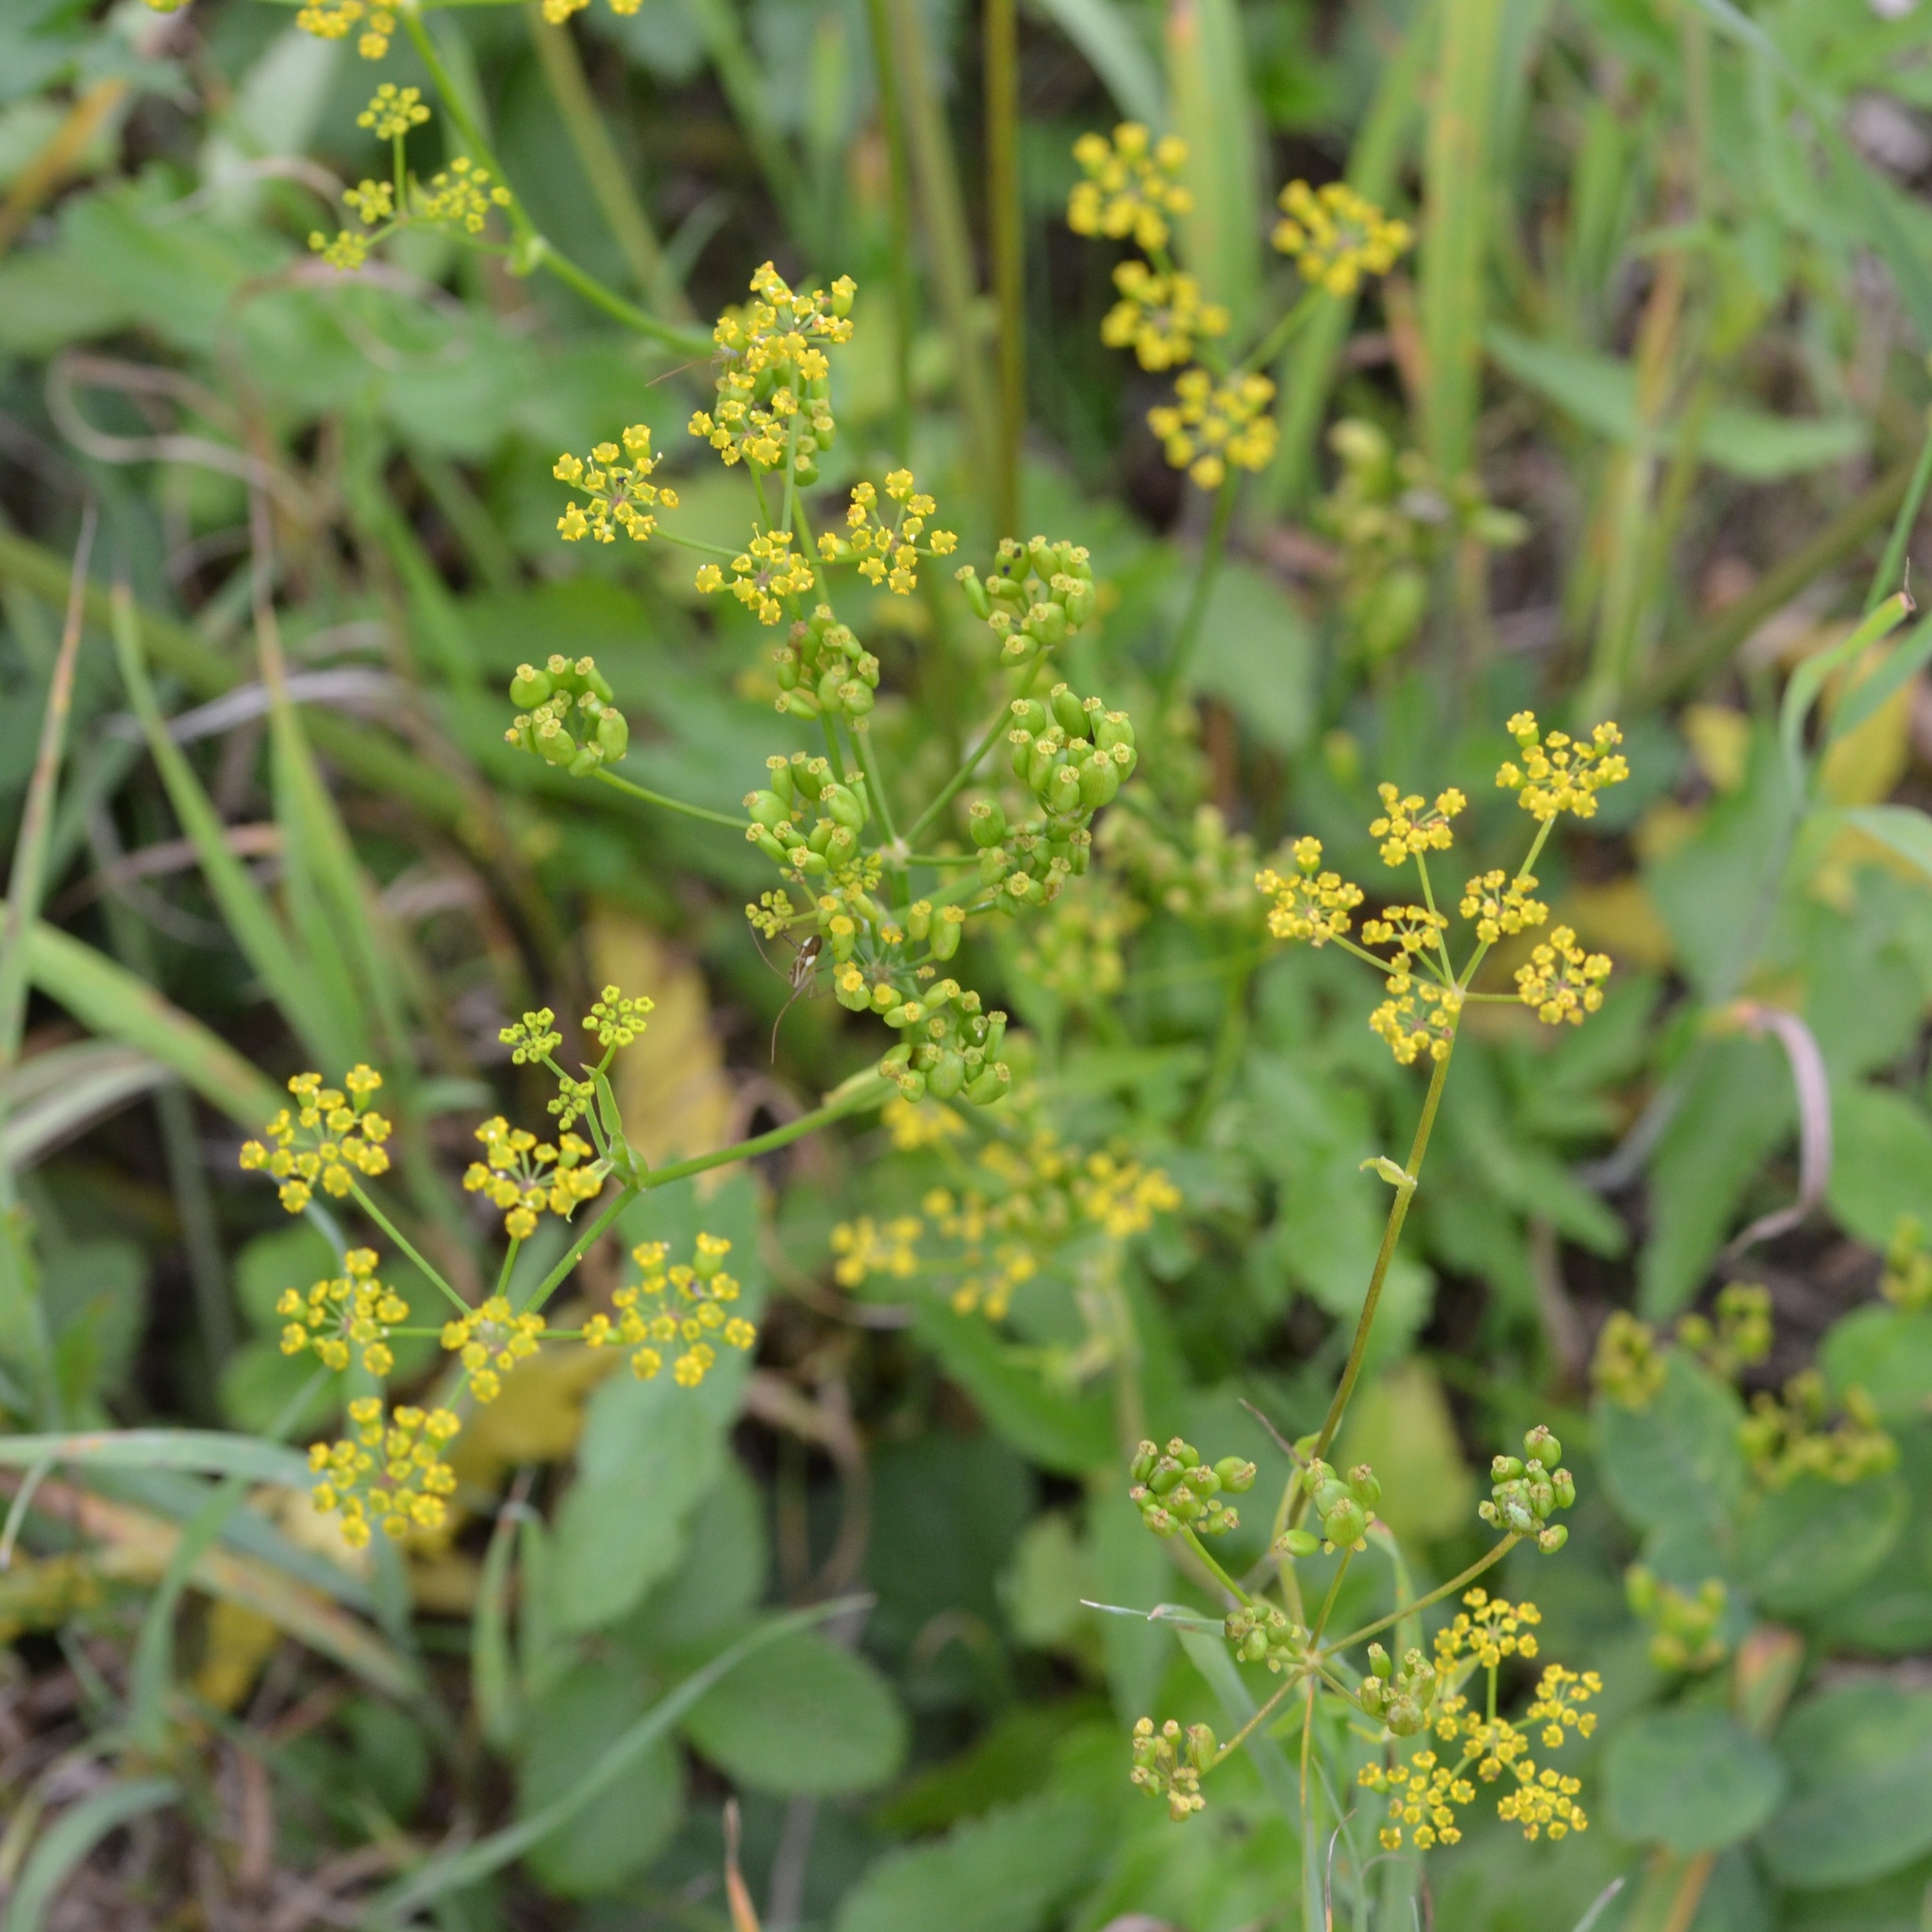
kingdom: Plantae
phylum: Tracheophyta
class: Magnoliopsida
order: Apiales
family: Apiaceae
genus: Pastinaca
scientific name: Pastinaca sativa
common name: Wild parsnip
